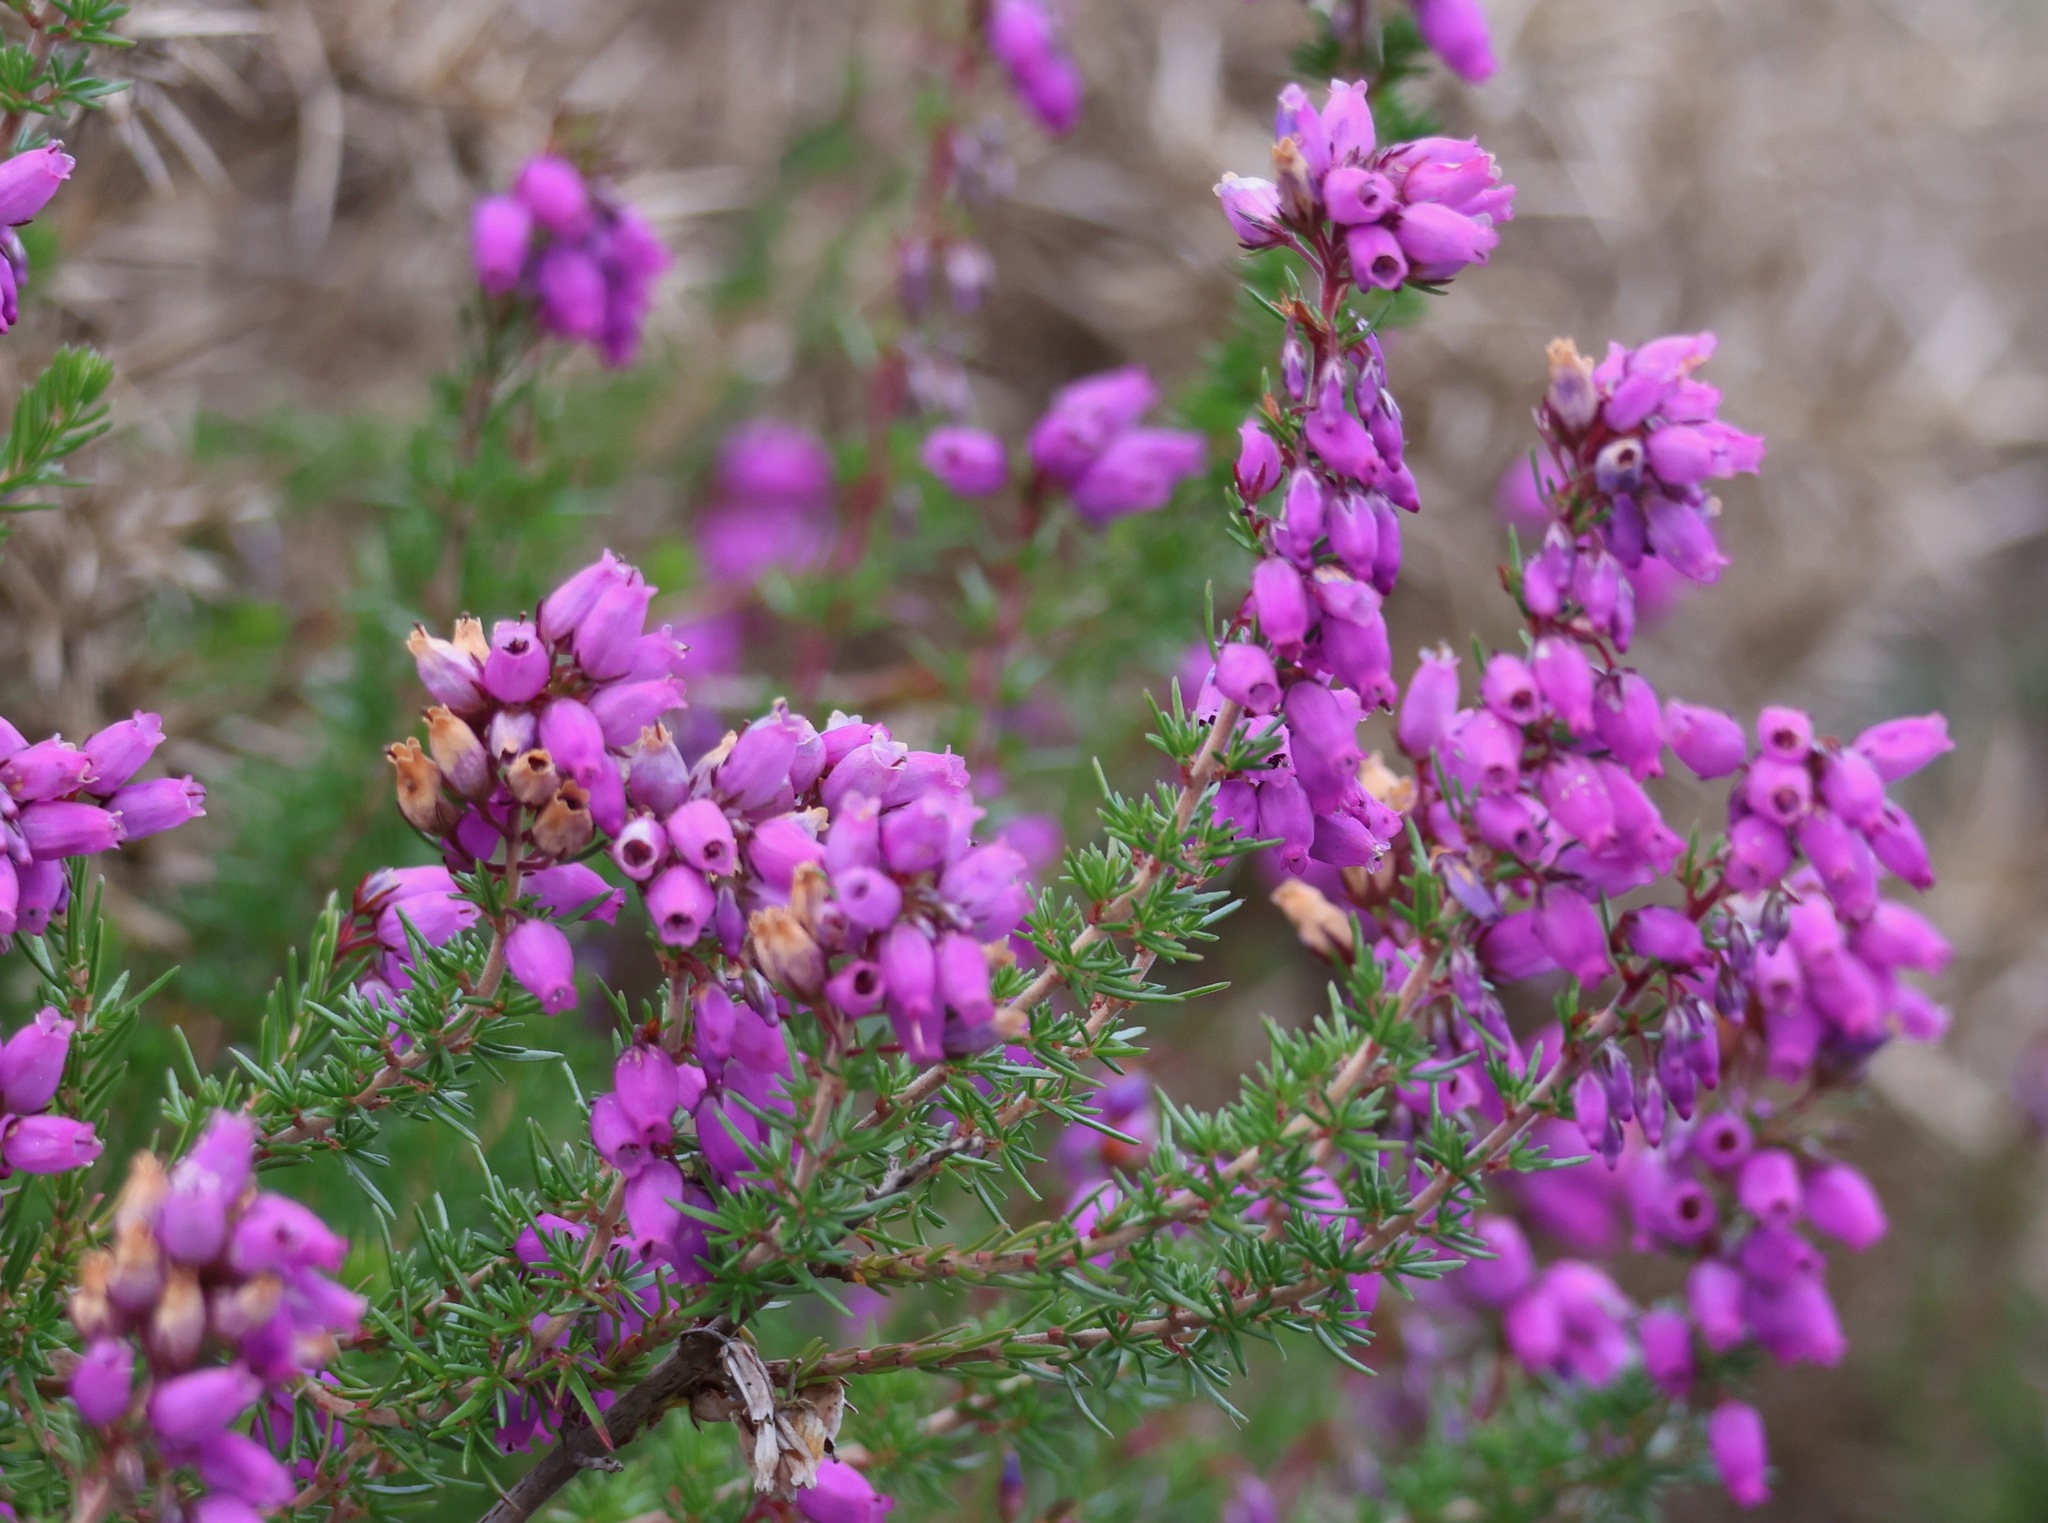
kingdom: Plantae
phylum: Tracheophyta
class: Magnoliopsida
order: Ericales
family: Ericaceae
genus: Erica
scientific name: Erica cinerea
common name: Bell heather
